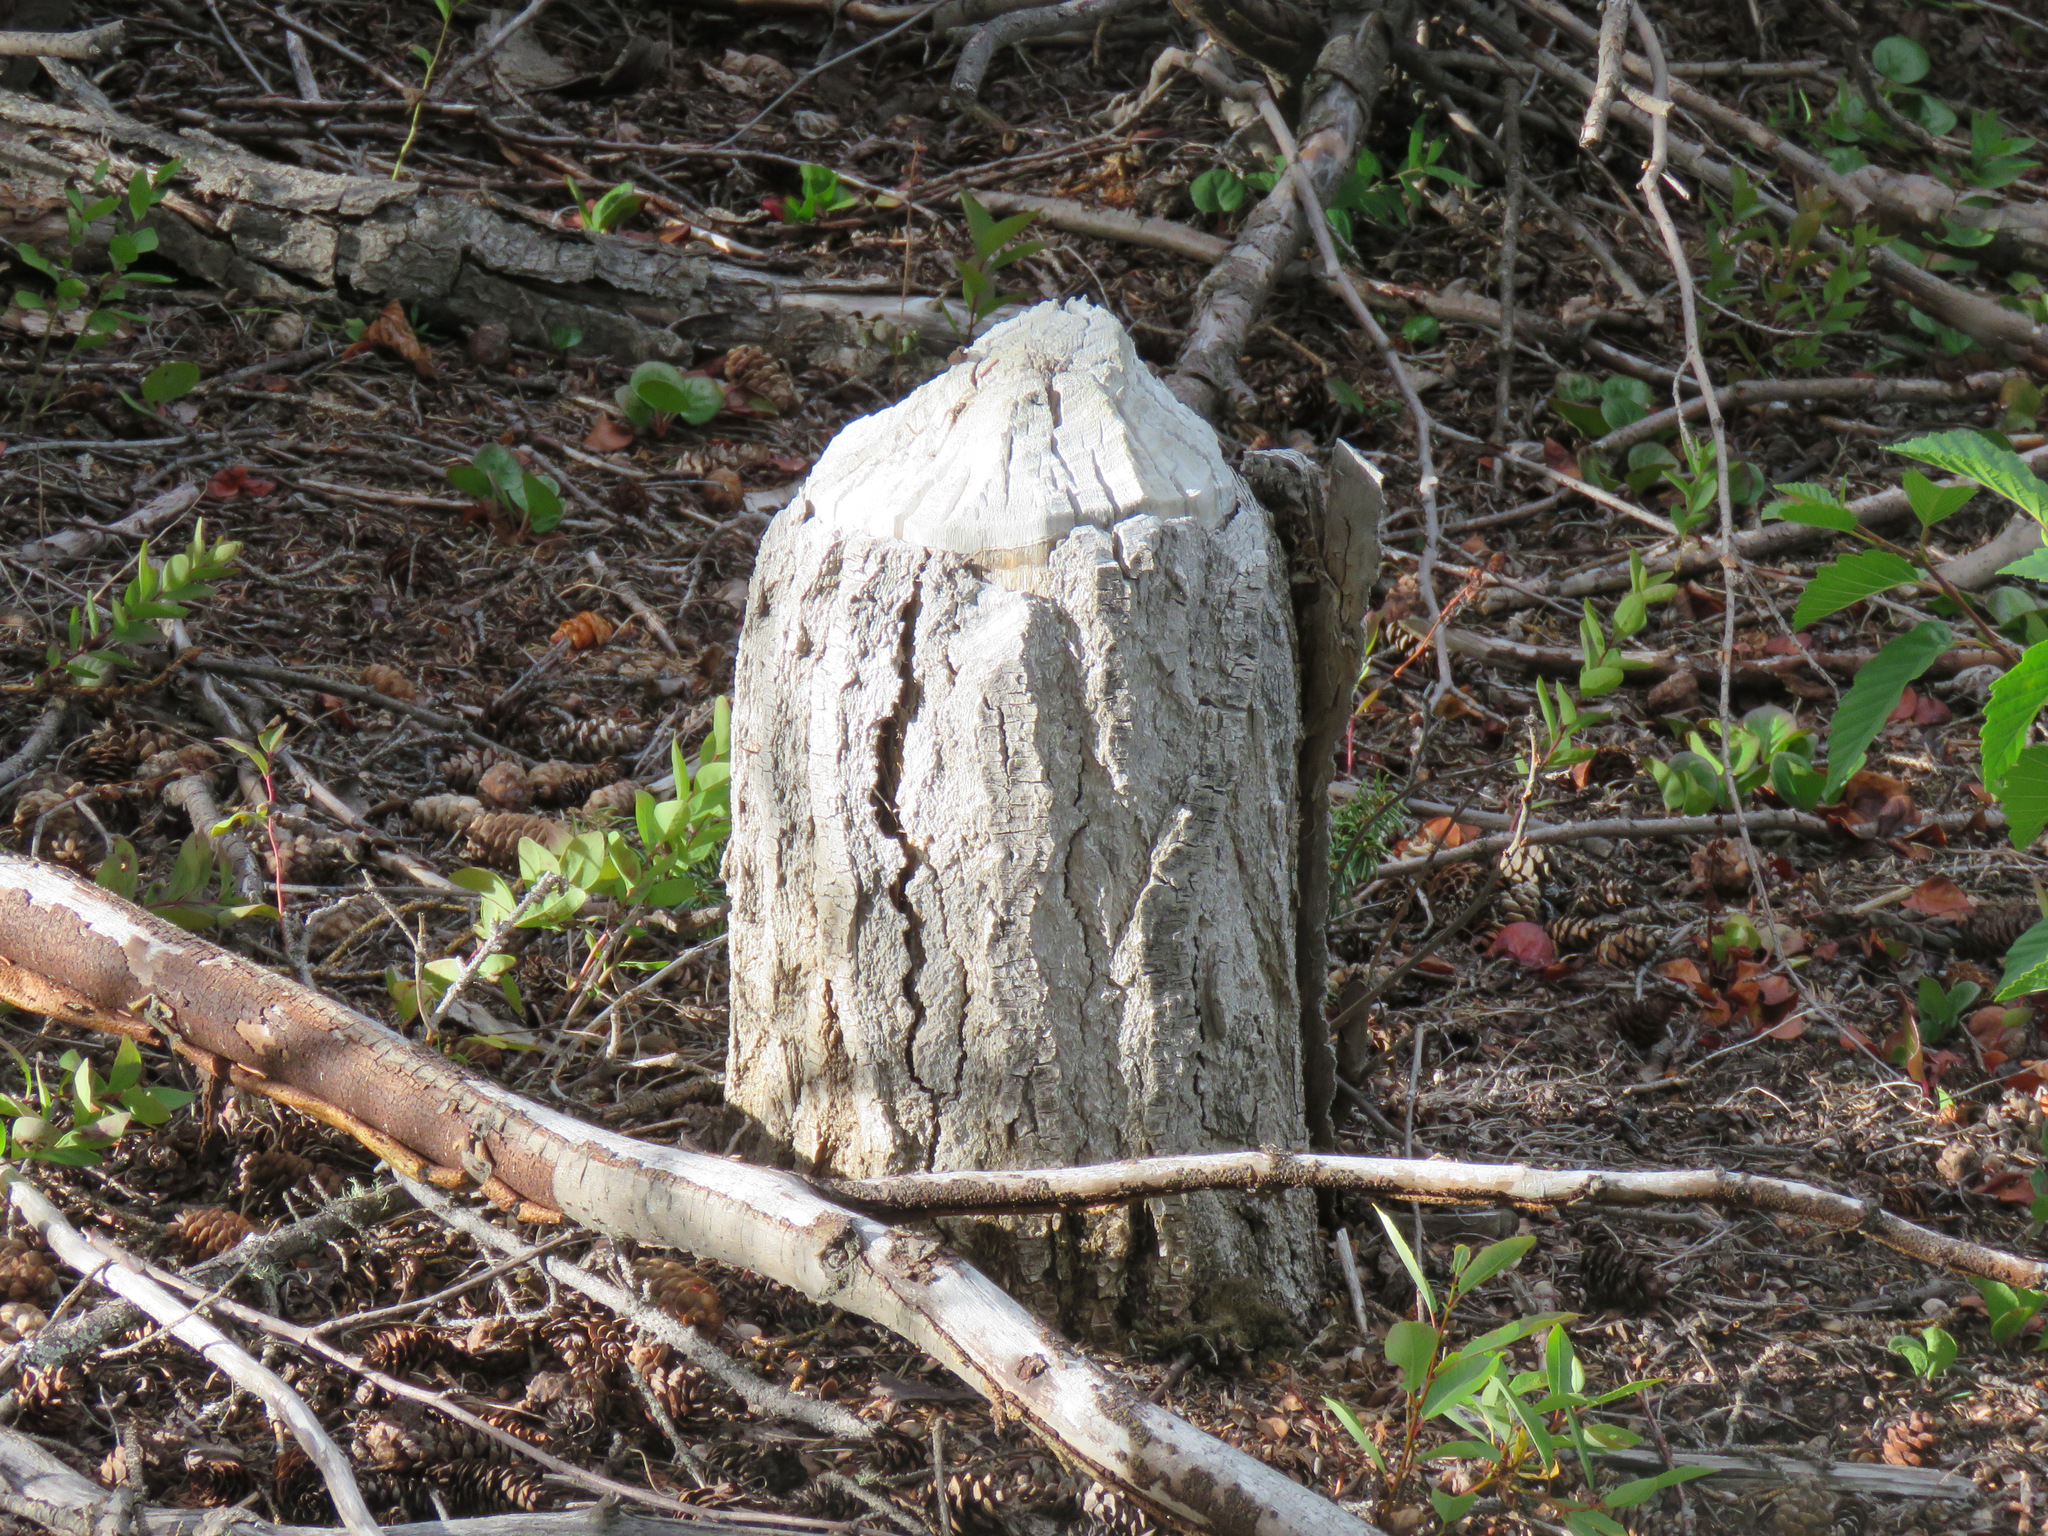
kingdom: Animalia
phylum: Chordata
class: Mammalia
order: Rodentia
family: Castoridae
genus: Castor
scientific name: Castor canadensis
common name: American beaver
